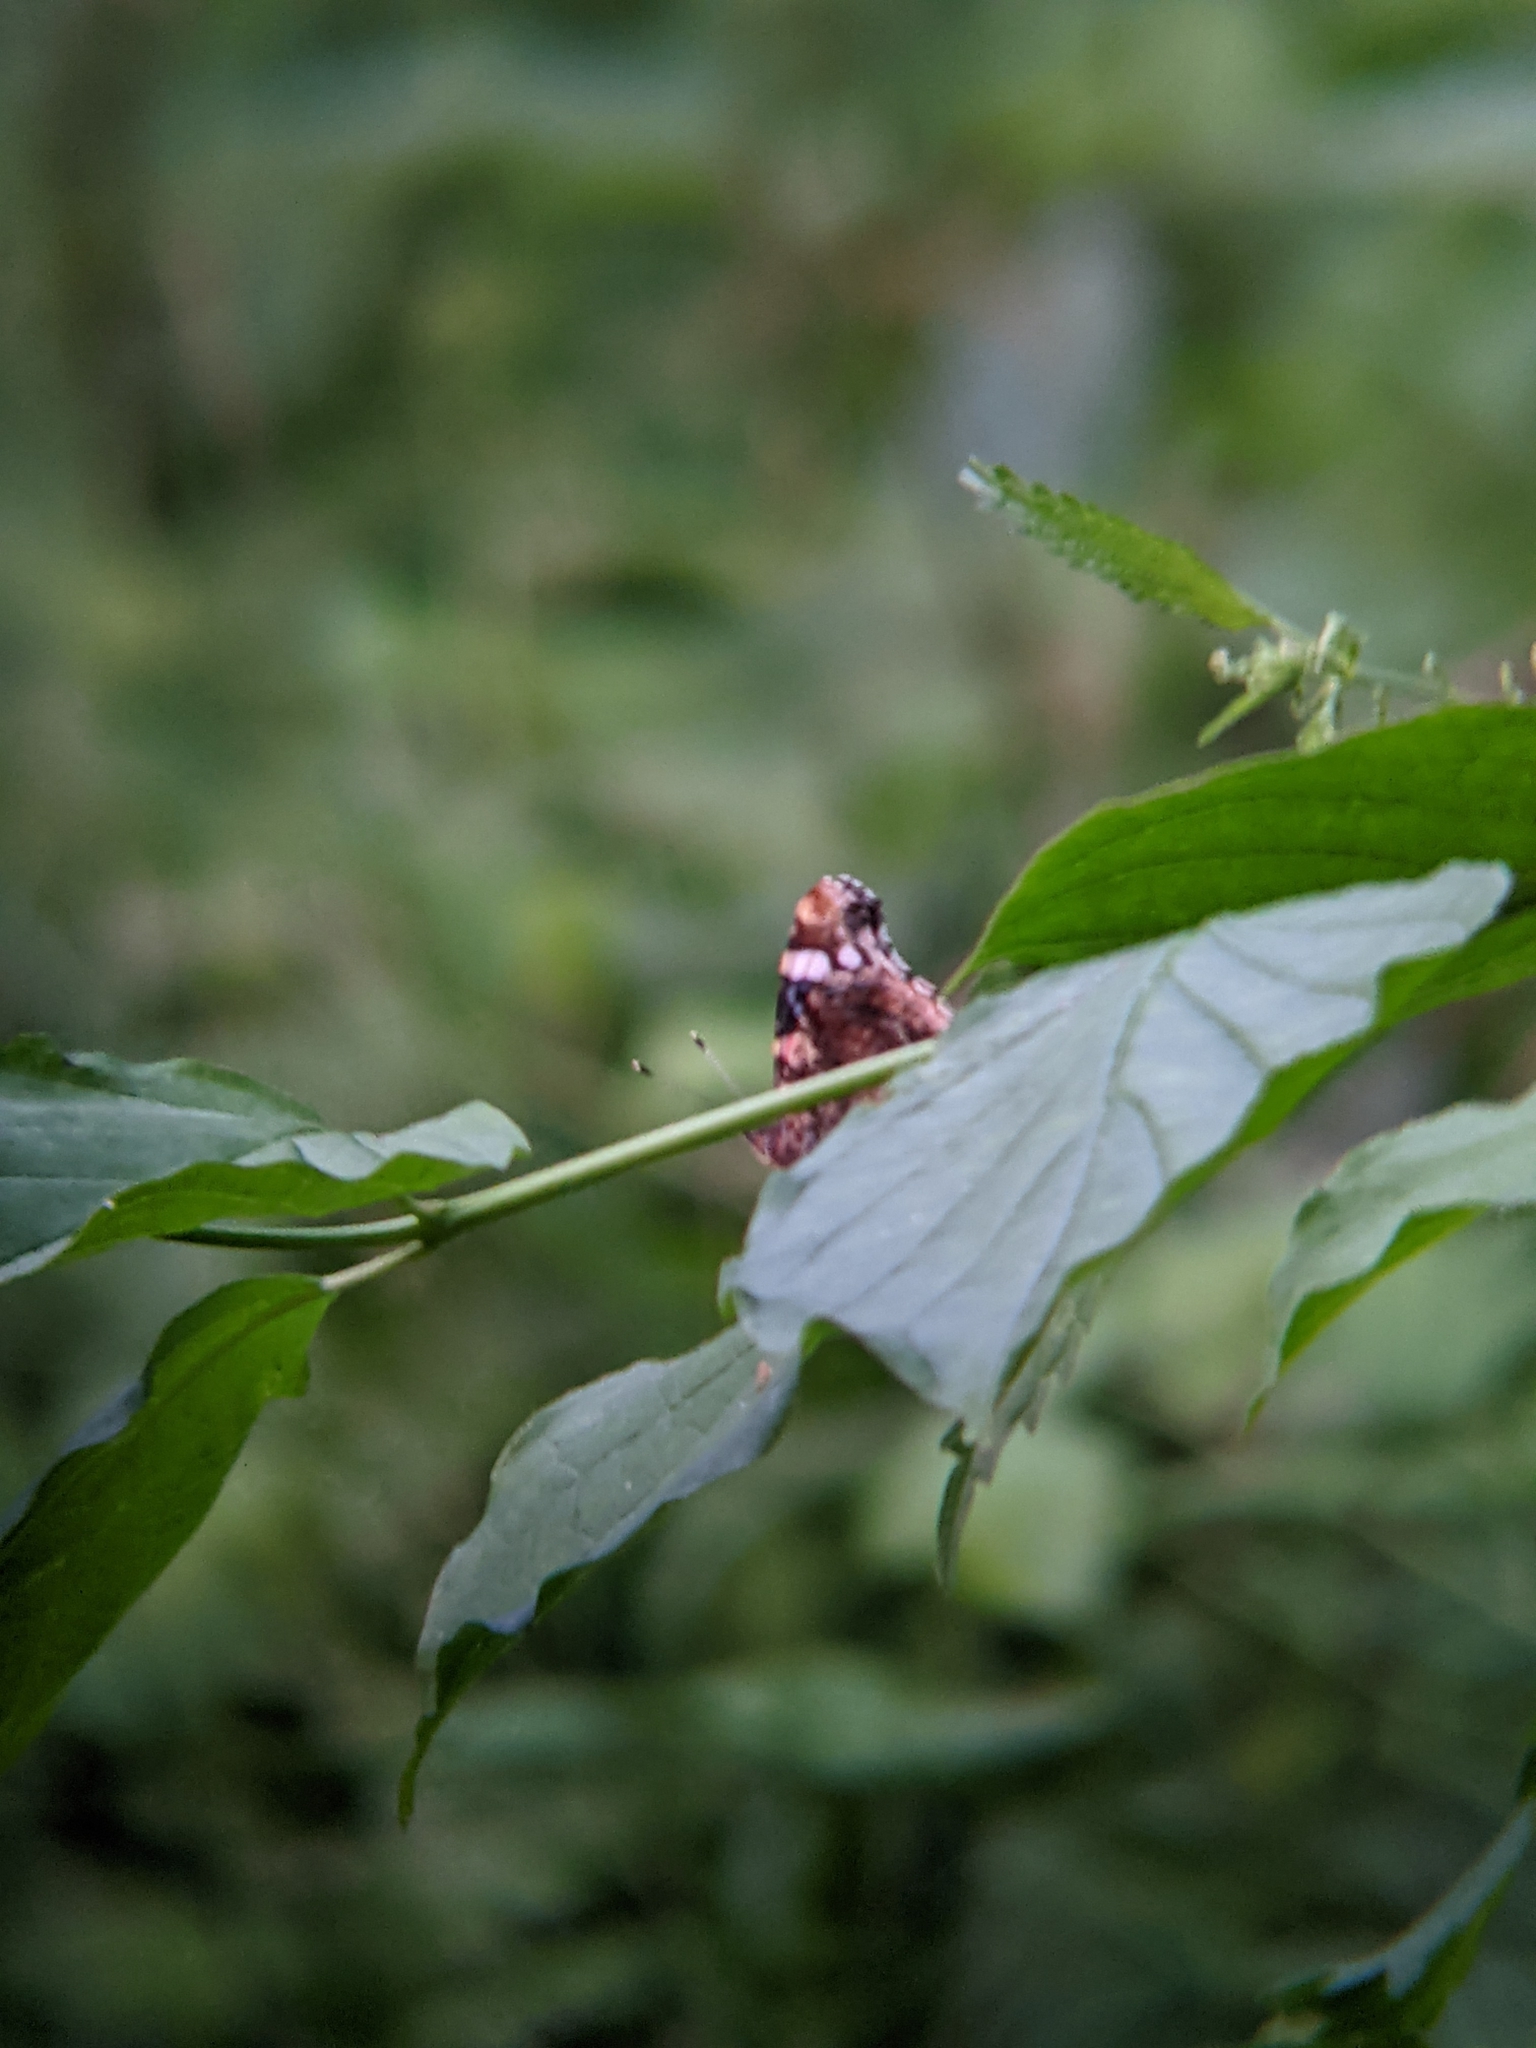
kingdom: Animalia
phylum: Arthropoda
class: Insecta
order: Lepidoptera
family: Nymphalidae
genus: Vanessa
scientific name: Vanessa atalanta
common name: Red admiral
